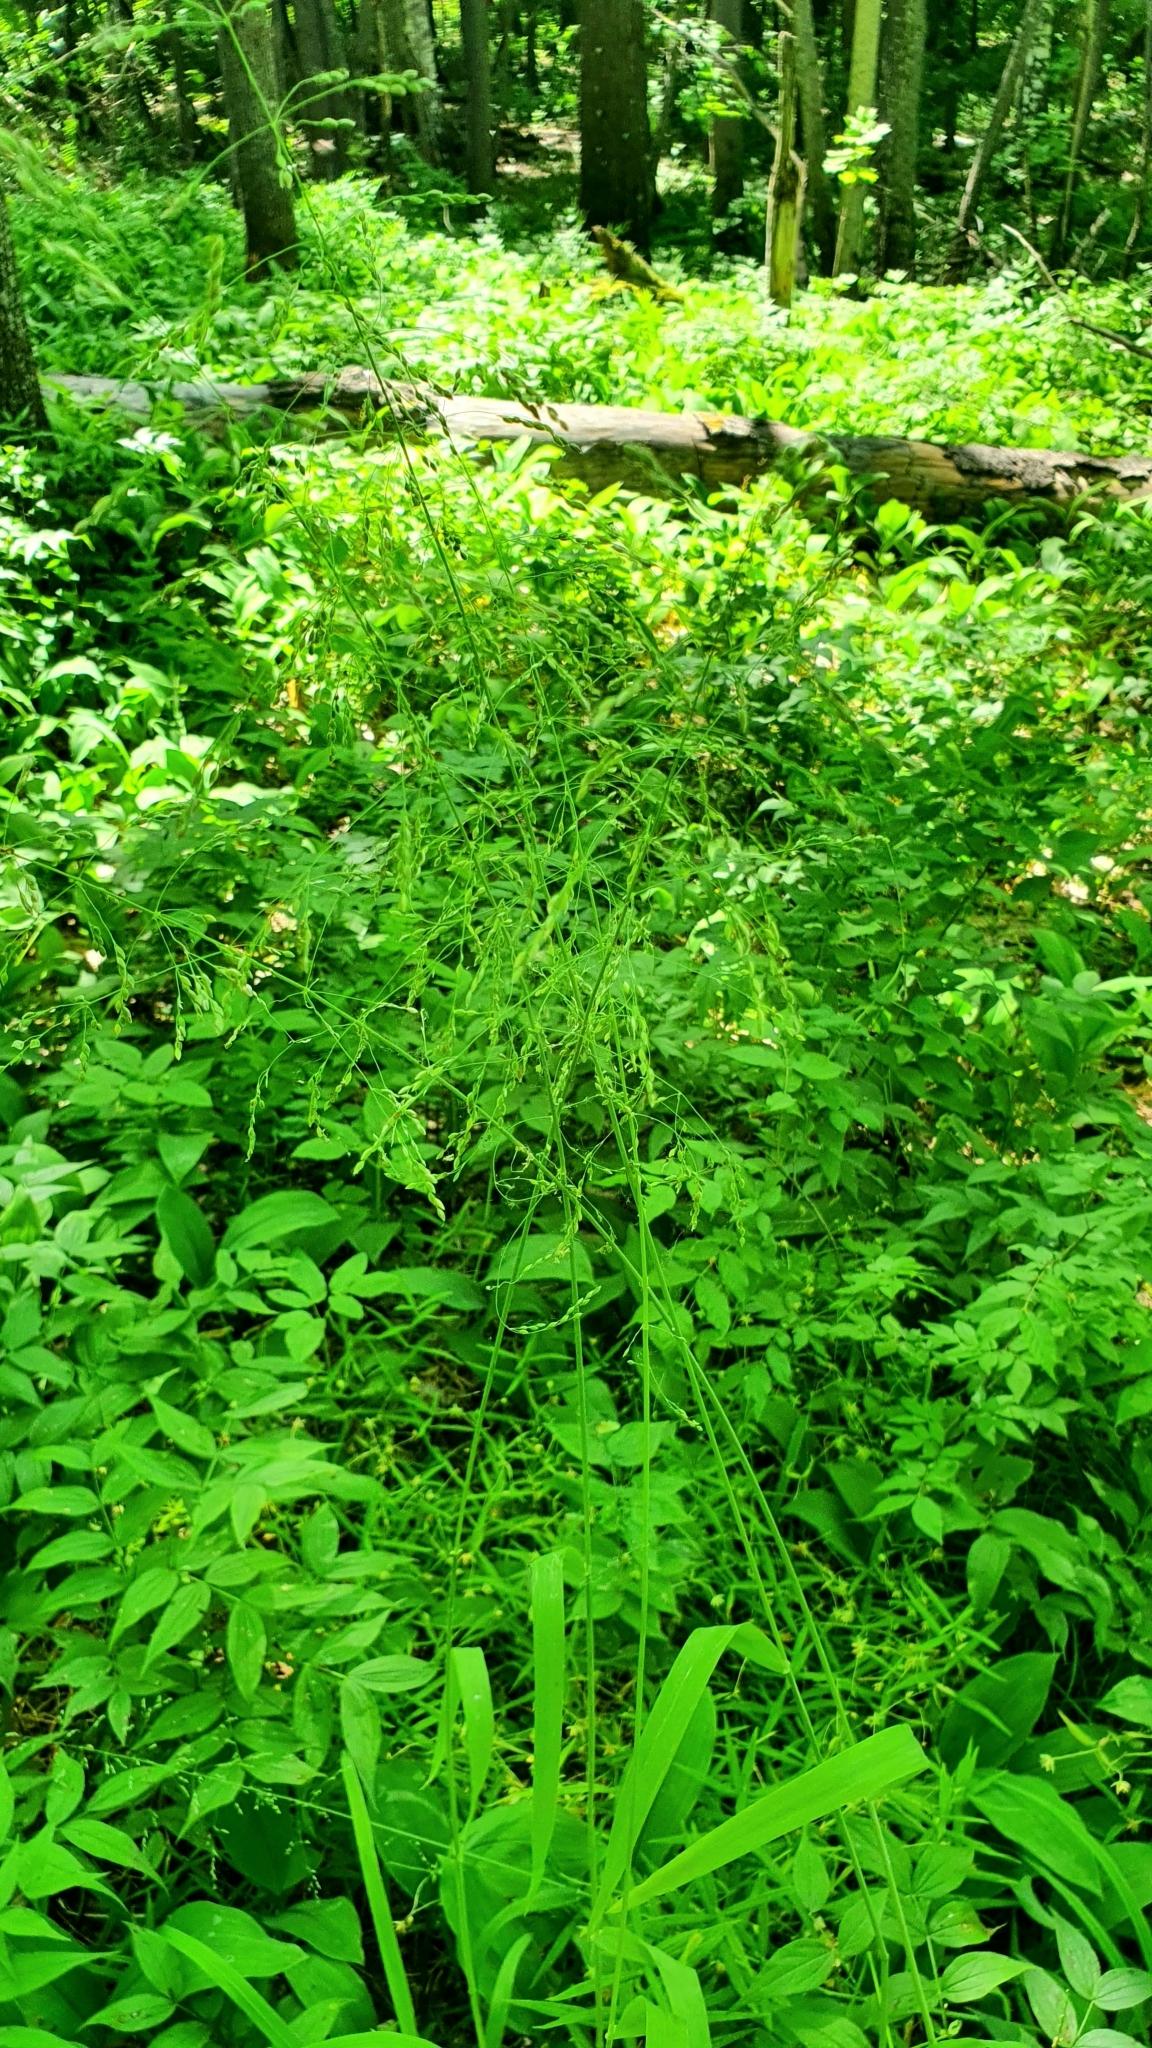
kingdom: Plantae
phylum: Tracheophyta
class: Liliopsida
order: Poales
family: Poaceae
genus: Milium
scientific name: Milium effusum
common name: Wood millet
